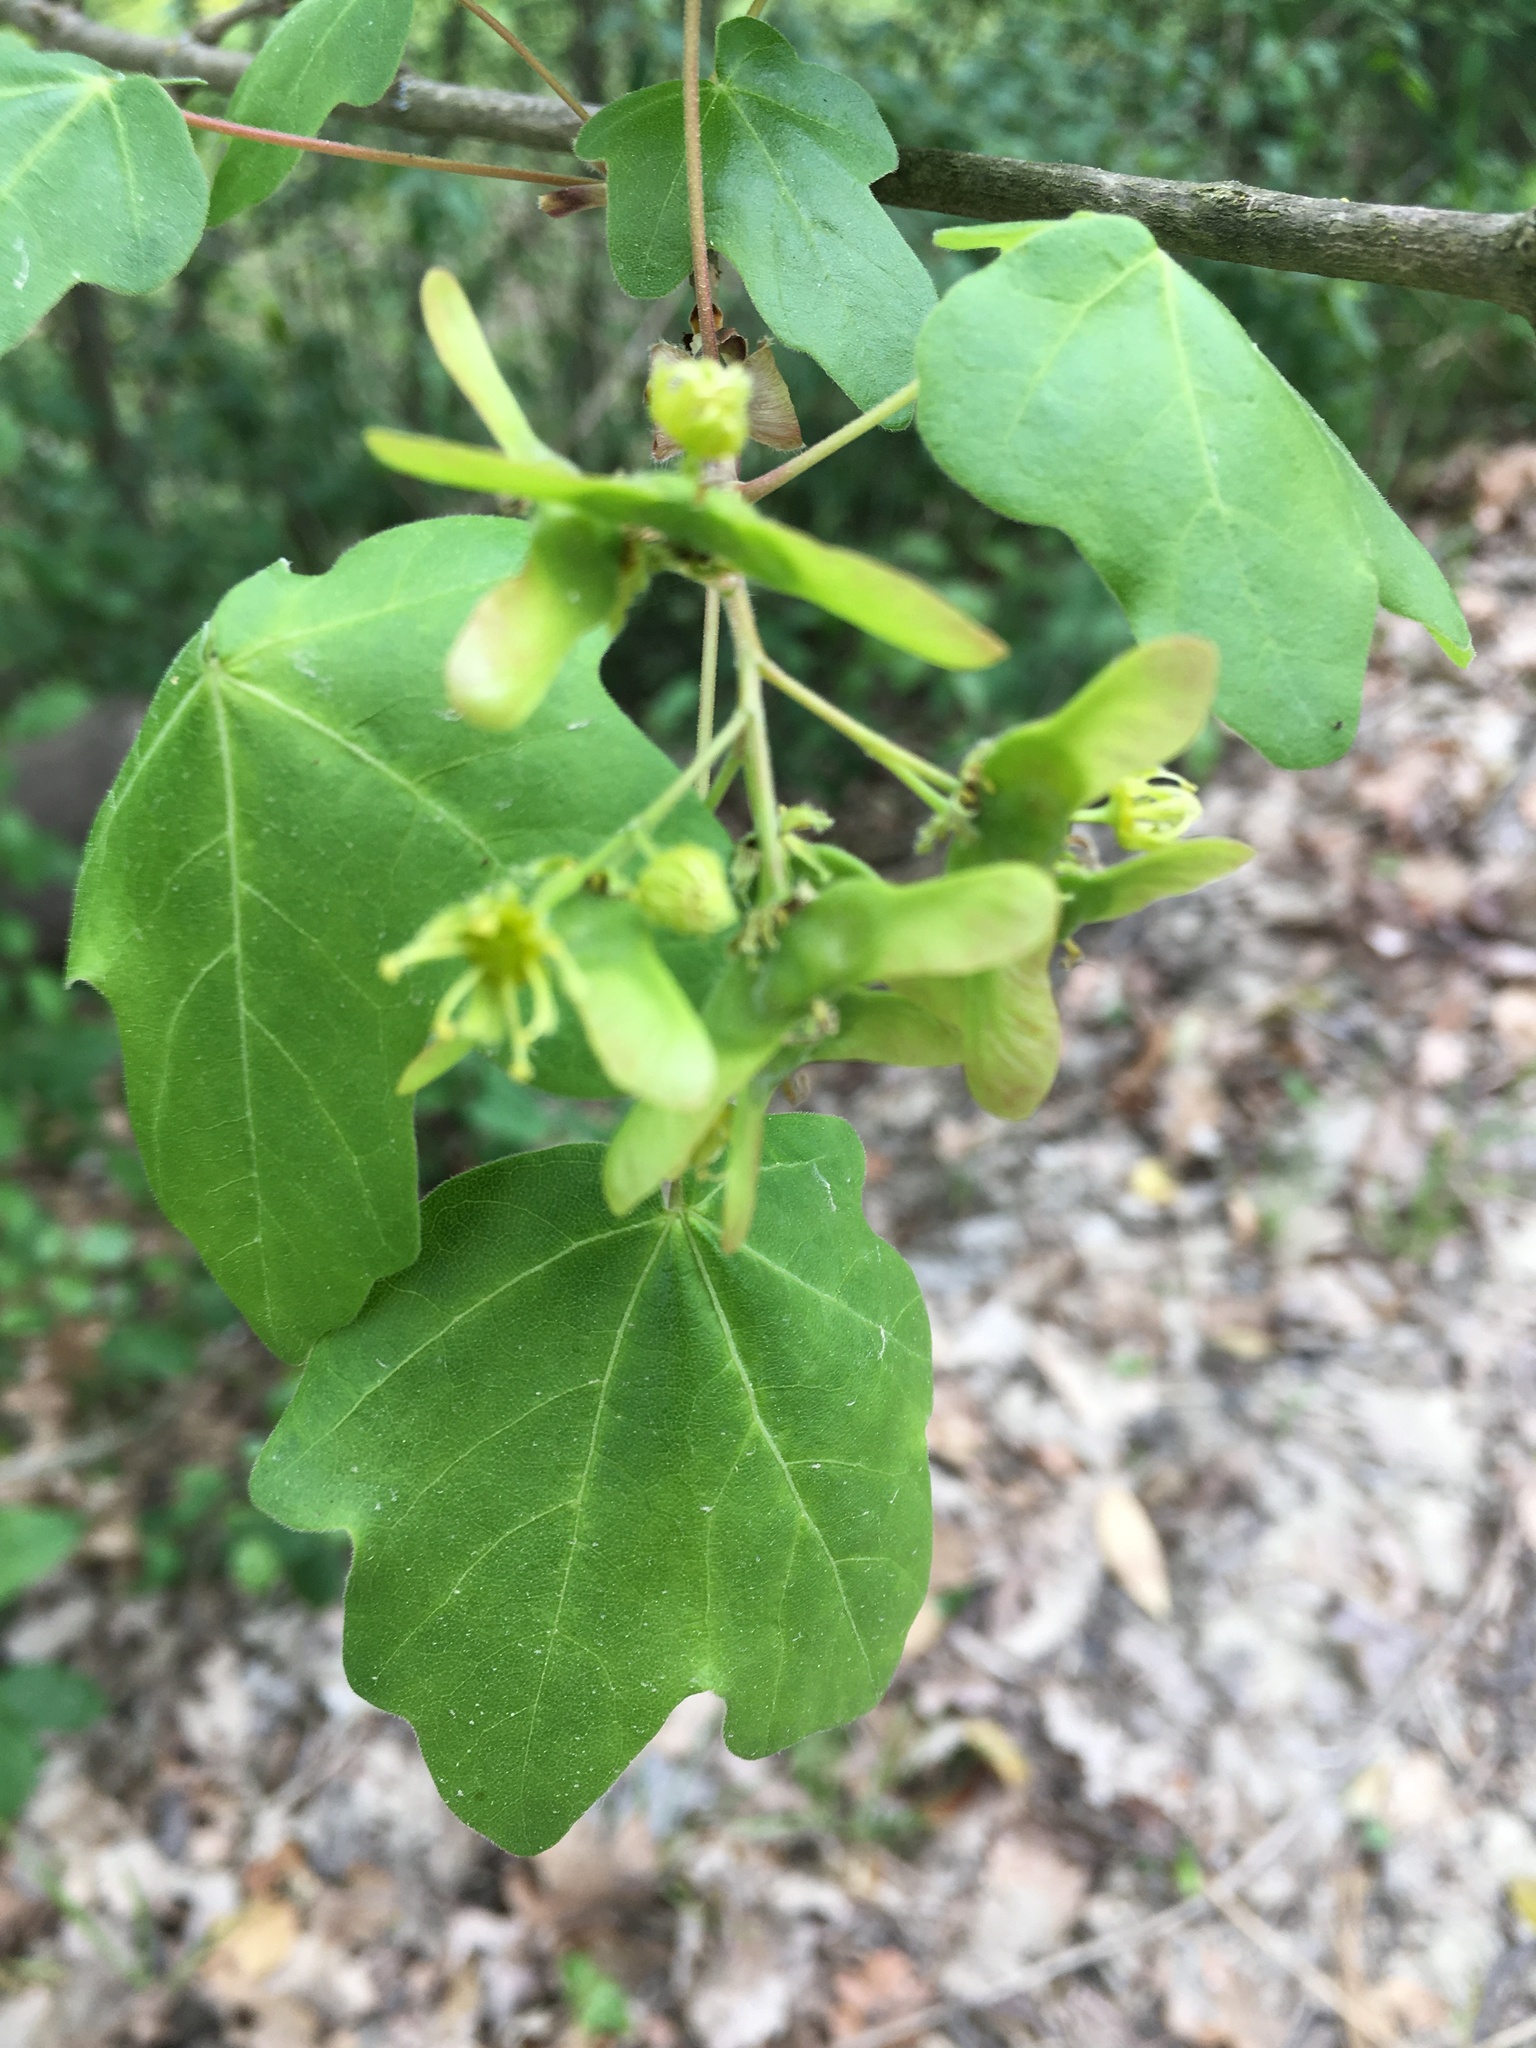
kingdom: Plantae
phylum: Tracheophyta
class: Magnoliopsida
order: Sapindales
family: Sapindaceae
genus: Acer
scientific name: Acer campestre
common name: Field maple
